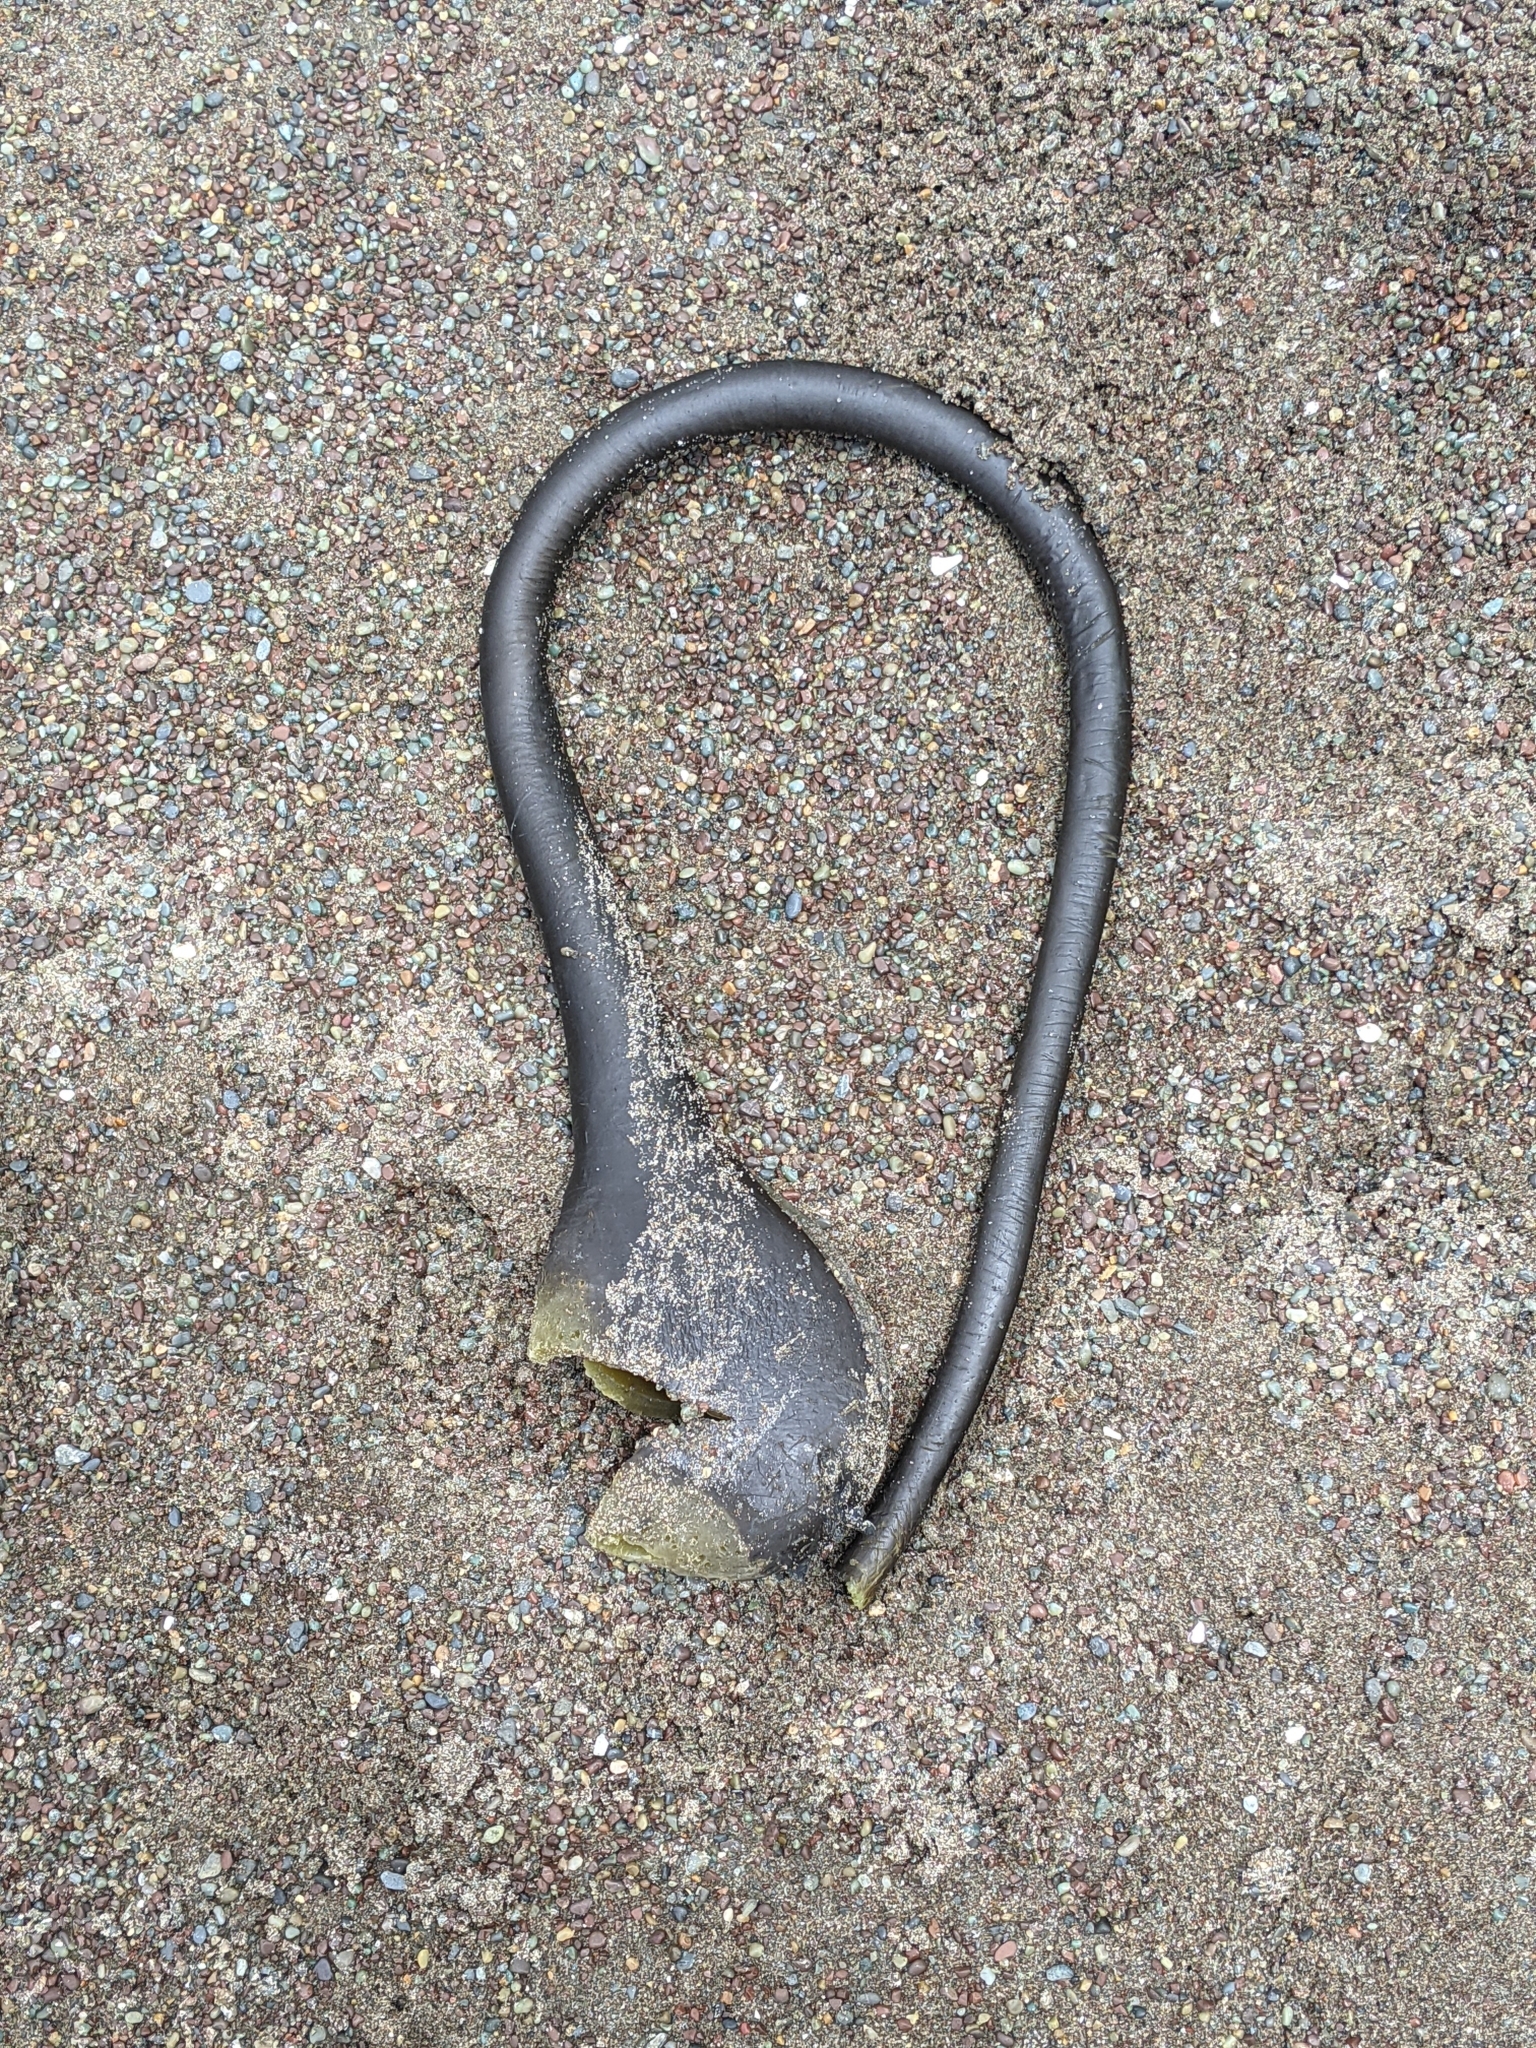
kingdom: Chromista
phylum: Ochrophyta
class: Phaeophyceae
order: Laminariales
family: Laminariaceae
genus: Nereocystis
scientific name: Nereocystis luetkeana
